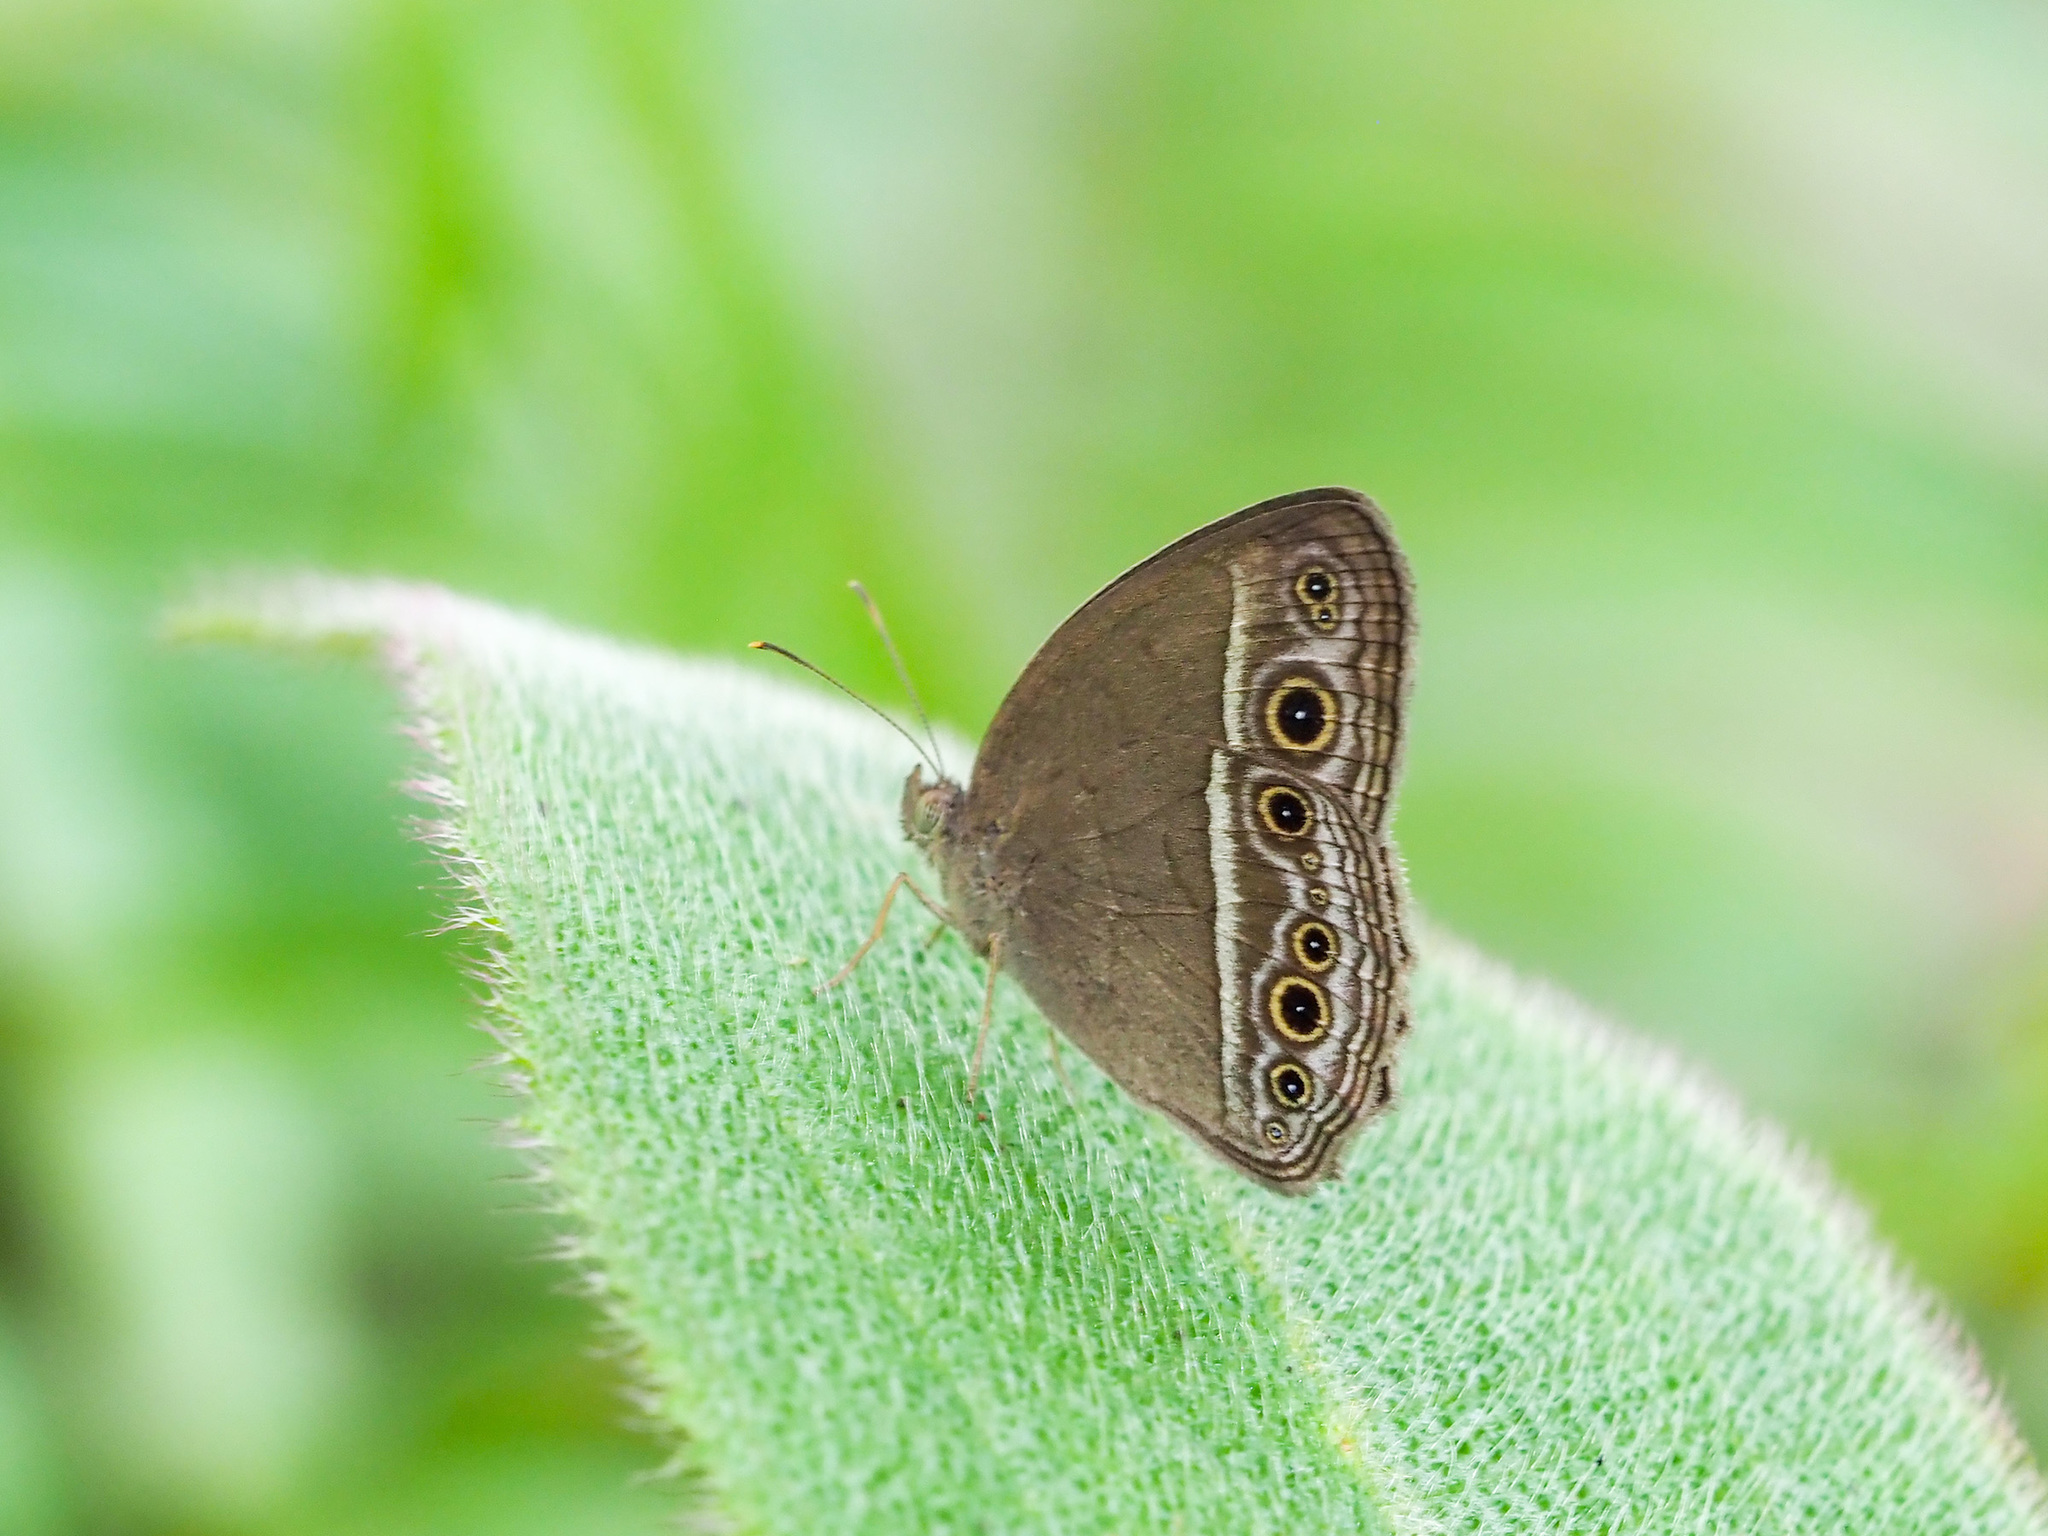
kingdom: Animalia
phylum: Arthropoda
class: Insecta
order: Lepidoptera
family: Nymphalidae
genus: Mycalesis
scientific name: Mycalesis visala
